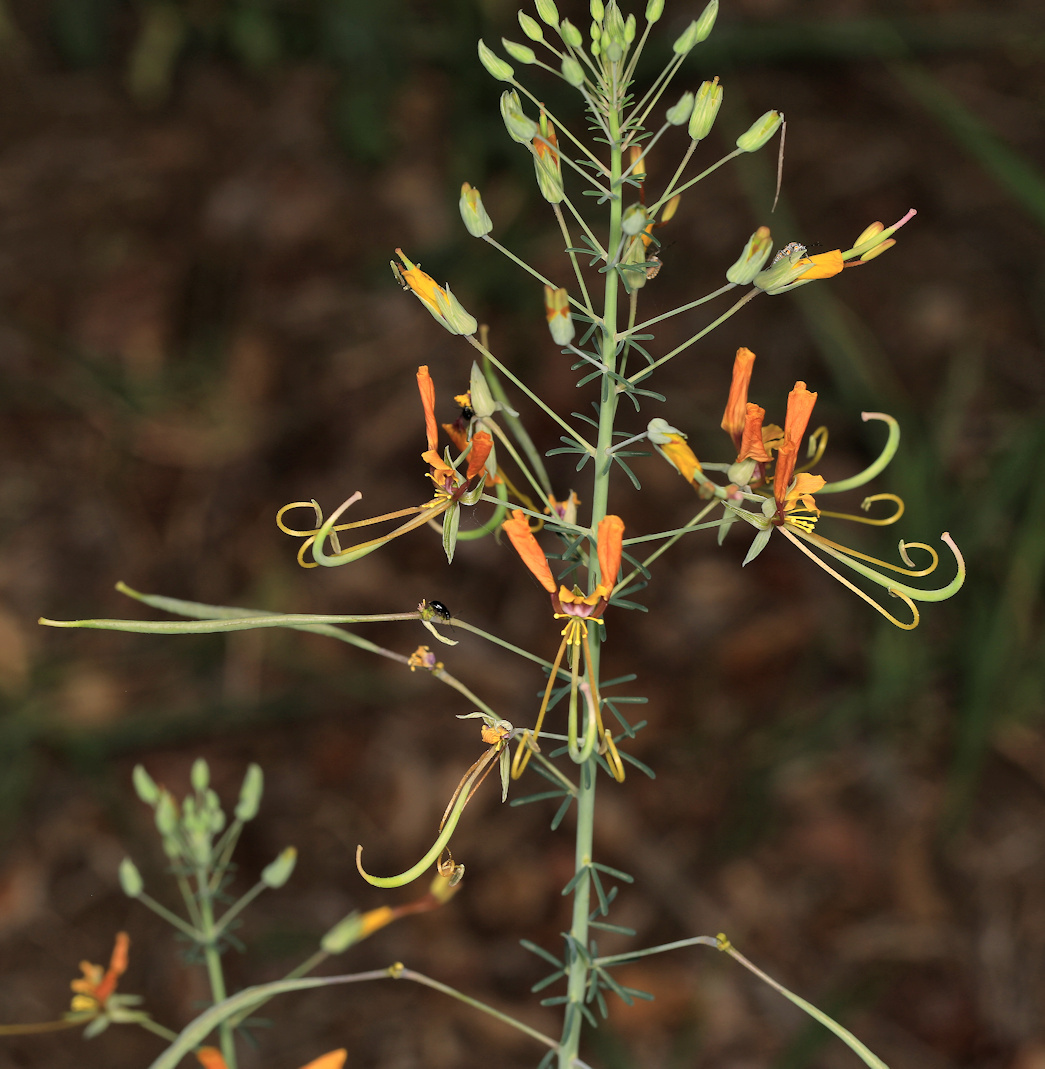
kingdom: Plantae
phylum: Tracheophyta
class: Magnoliopsida
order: Brassicales
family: Cleomaceae
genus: Coalisina
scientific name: Coalisina
